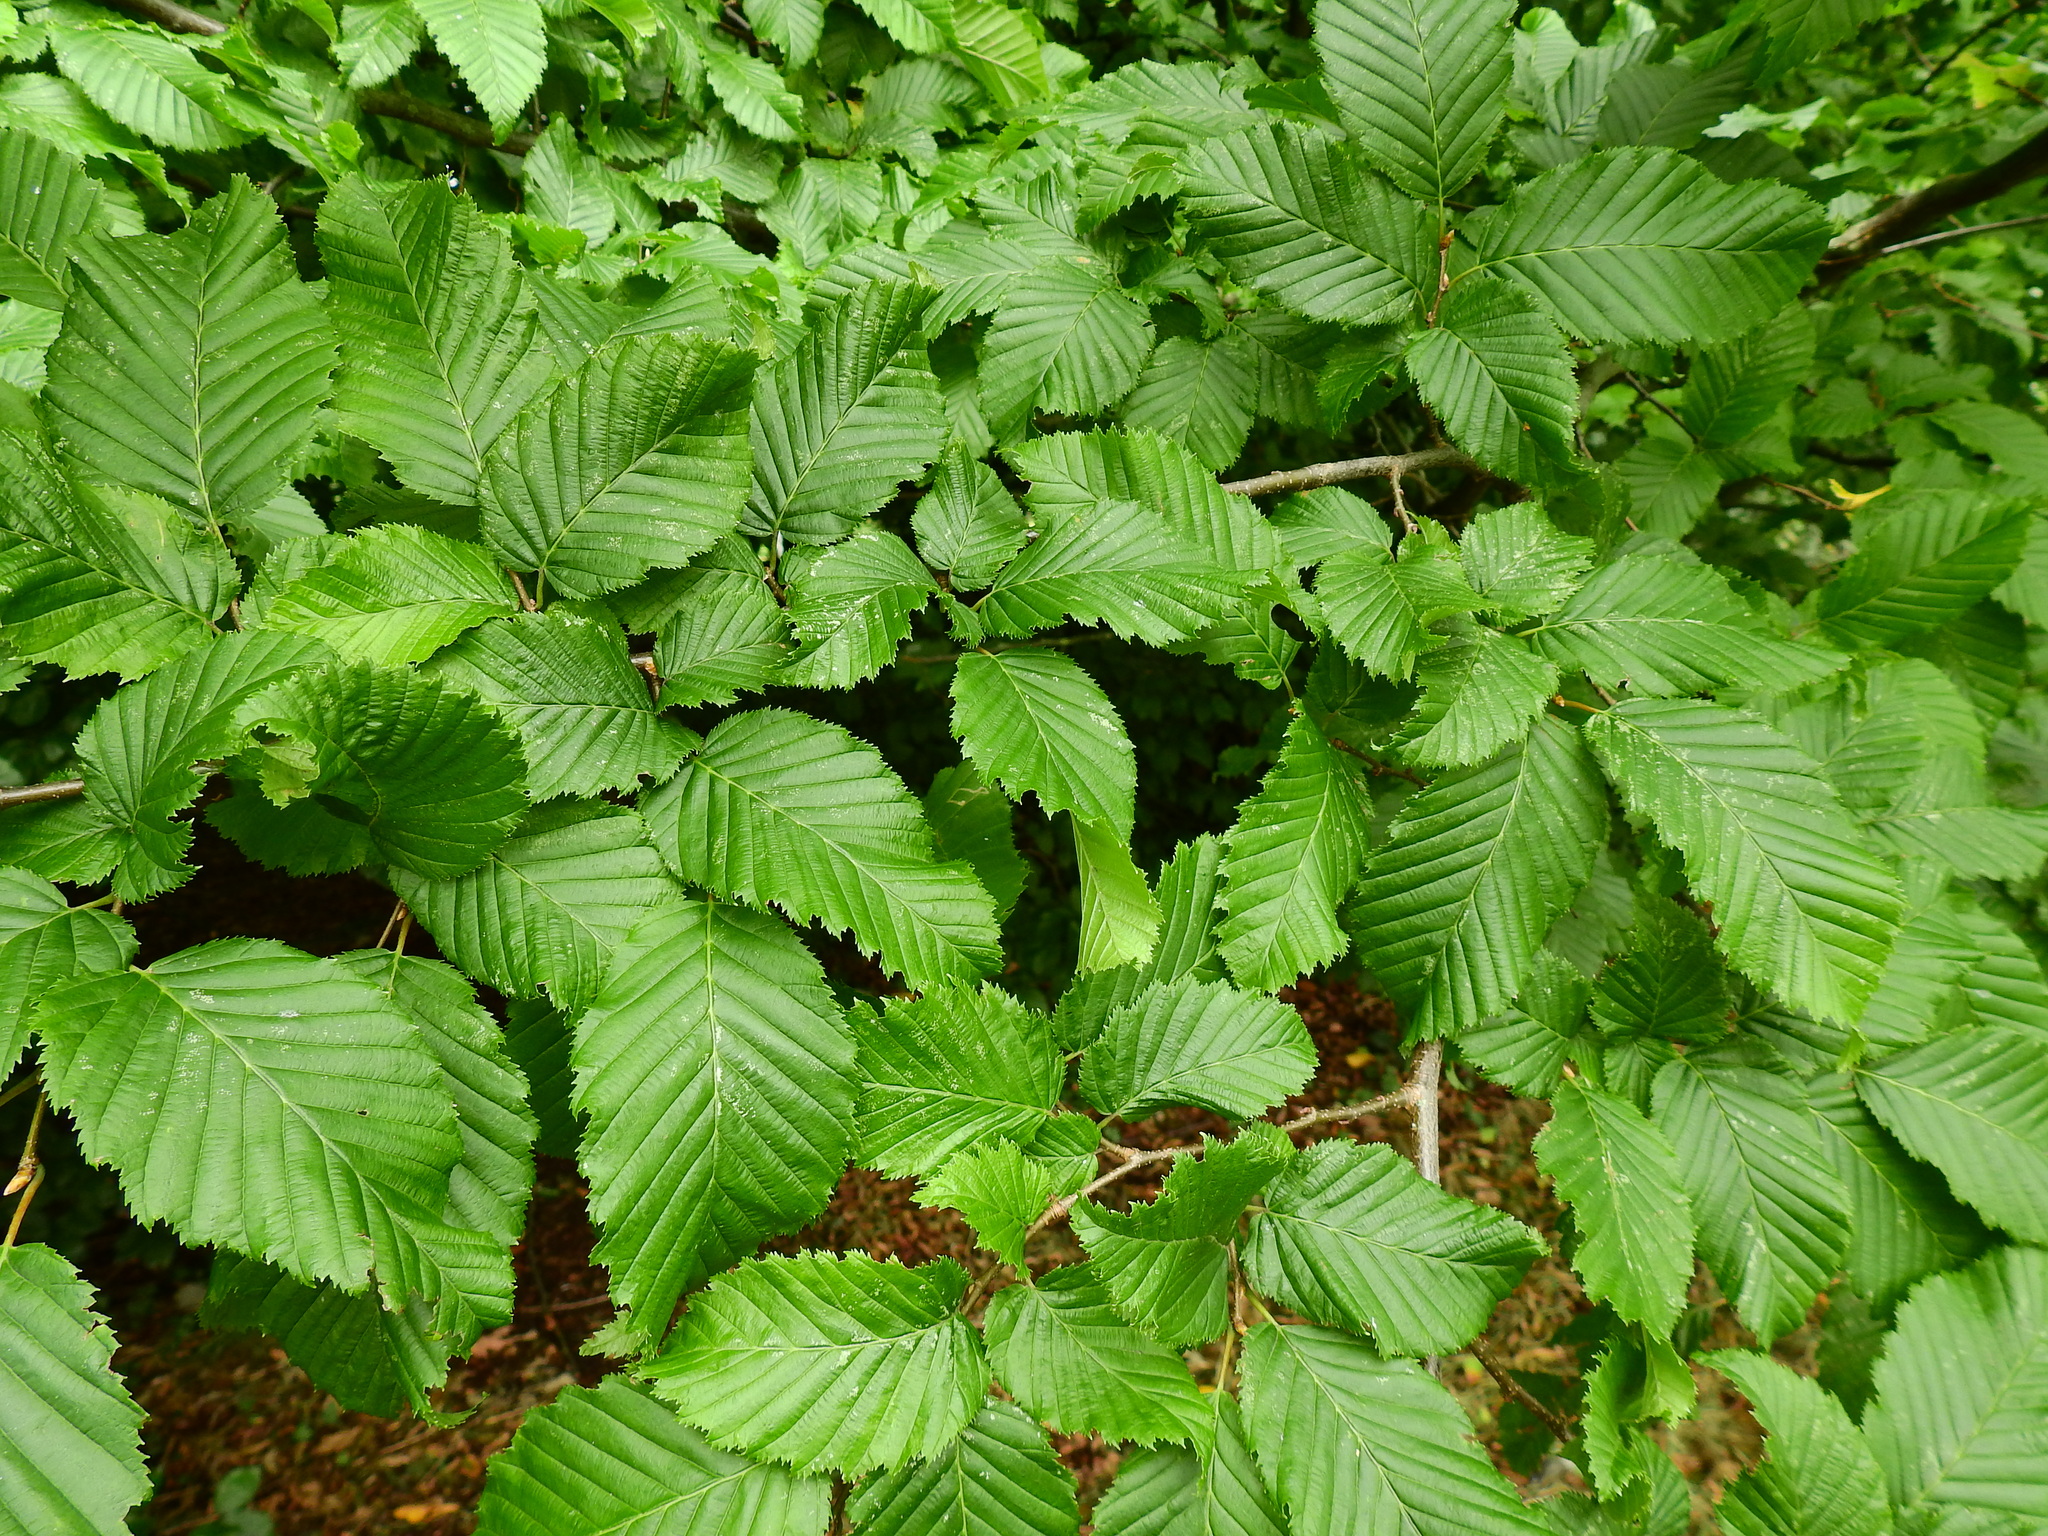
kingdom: Plantae
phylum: Tracheophyta
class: Magnoliopsida
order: Fagales
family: Betulaceae
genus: Carpinus
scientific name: Carpinus betulus
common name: Hornbeam
